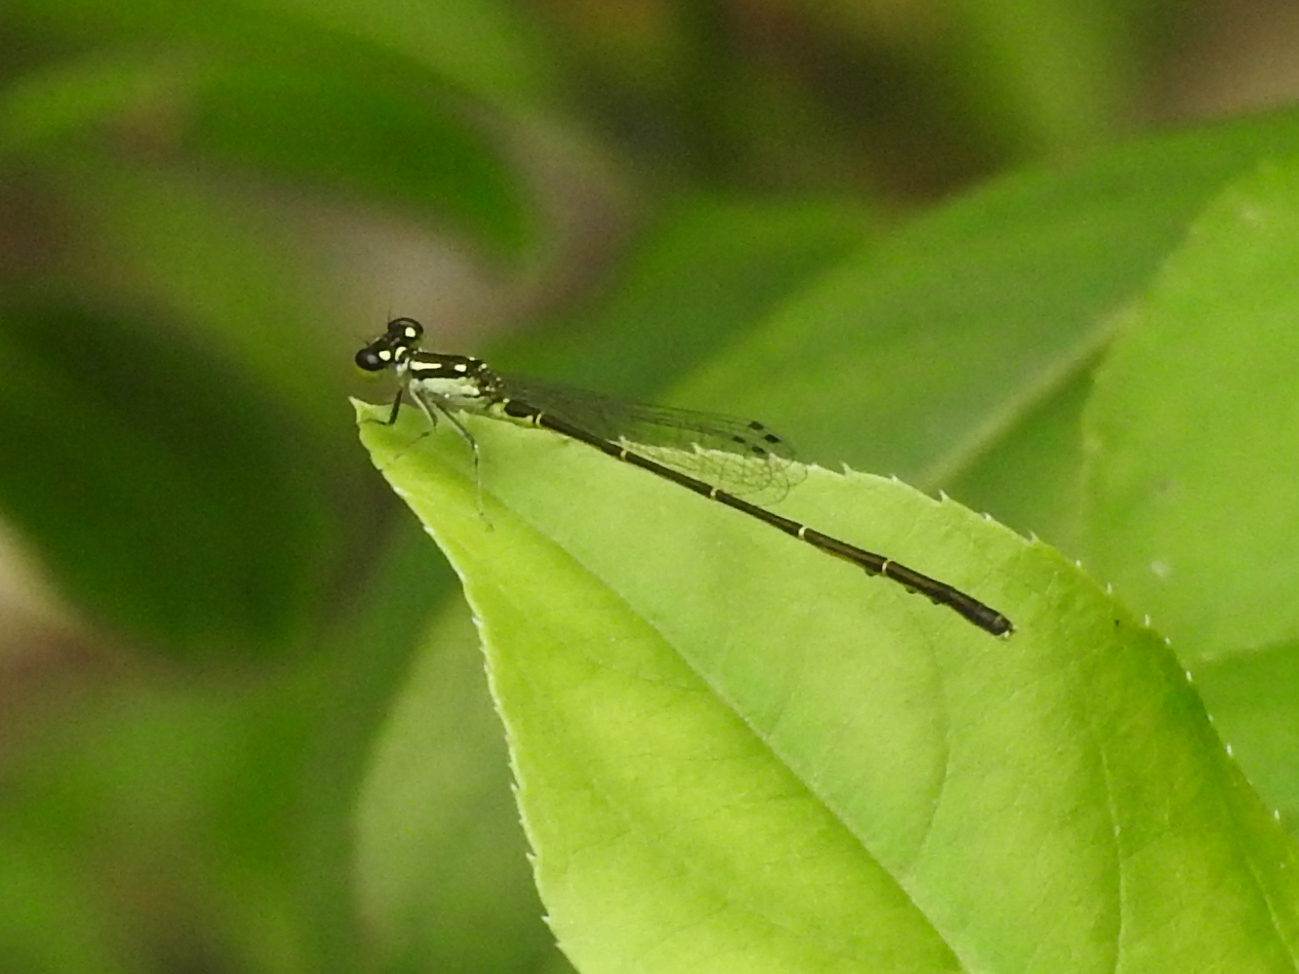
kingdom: Animalia
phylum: Arthropoda
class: Insecta
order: Odonata
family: Coenagrionidae
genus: Ischnura
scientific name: Ischnura posita
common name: Fragile forktail
